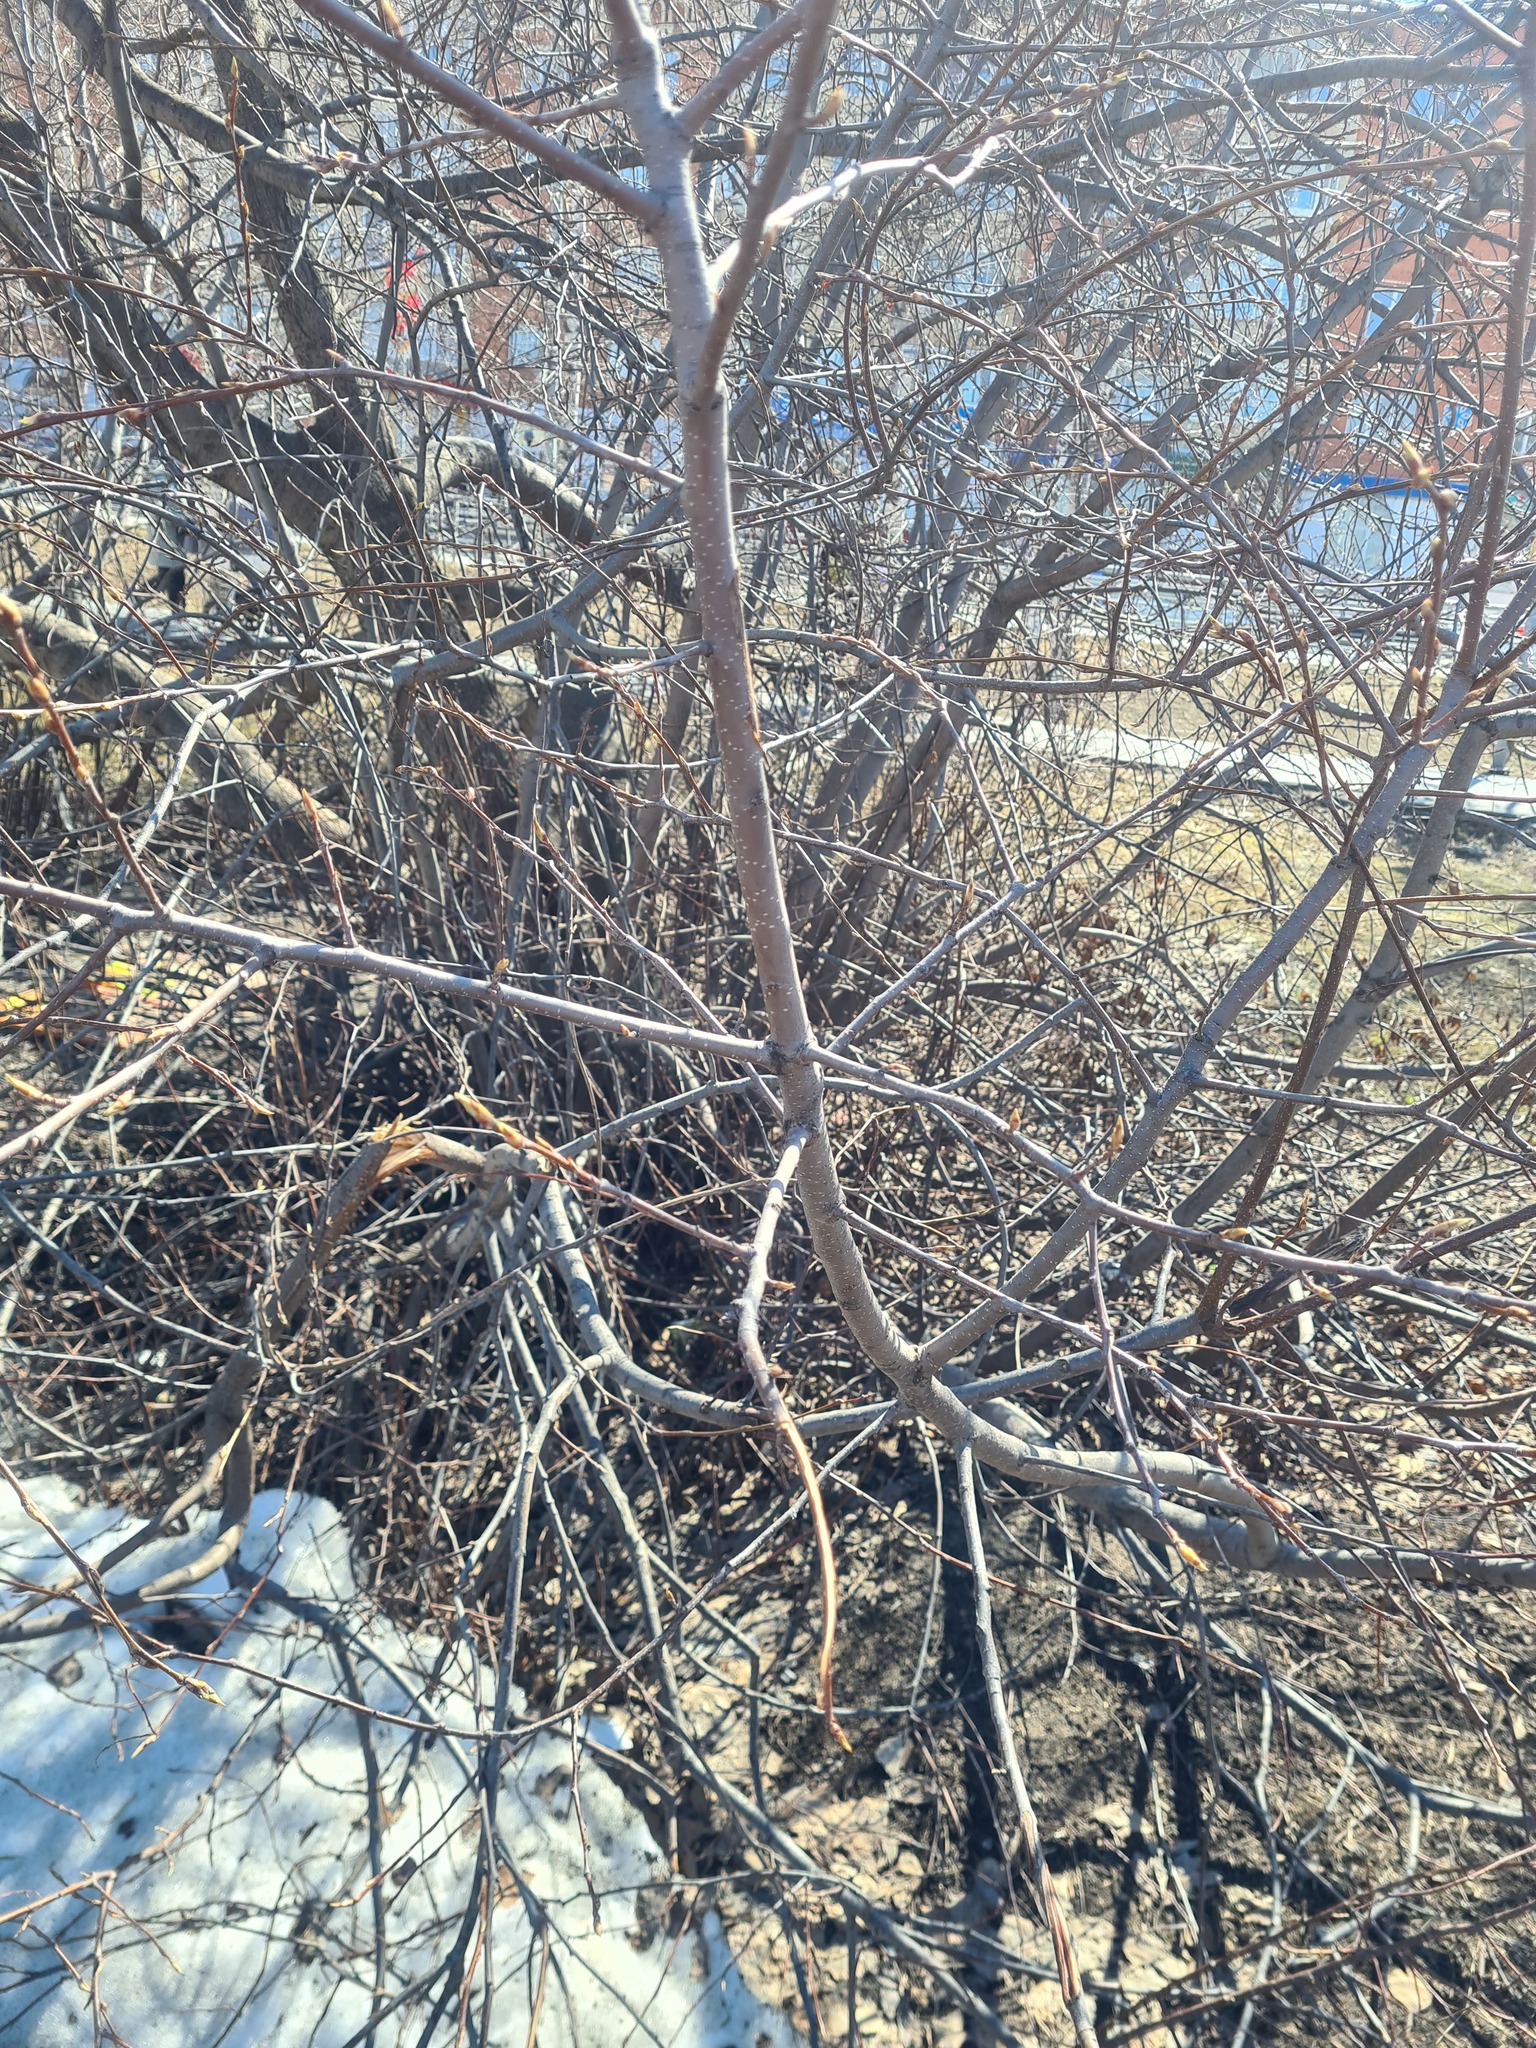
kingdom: Plantae
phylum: Tracheophyta
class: Magnoliopsida
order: Rosales
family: Rosaceae
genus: Prunus
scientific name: Prunus padus
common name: Bird cherry
